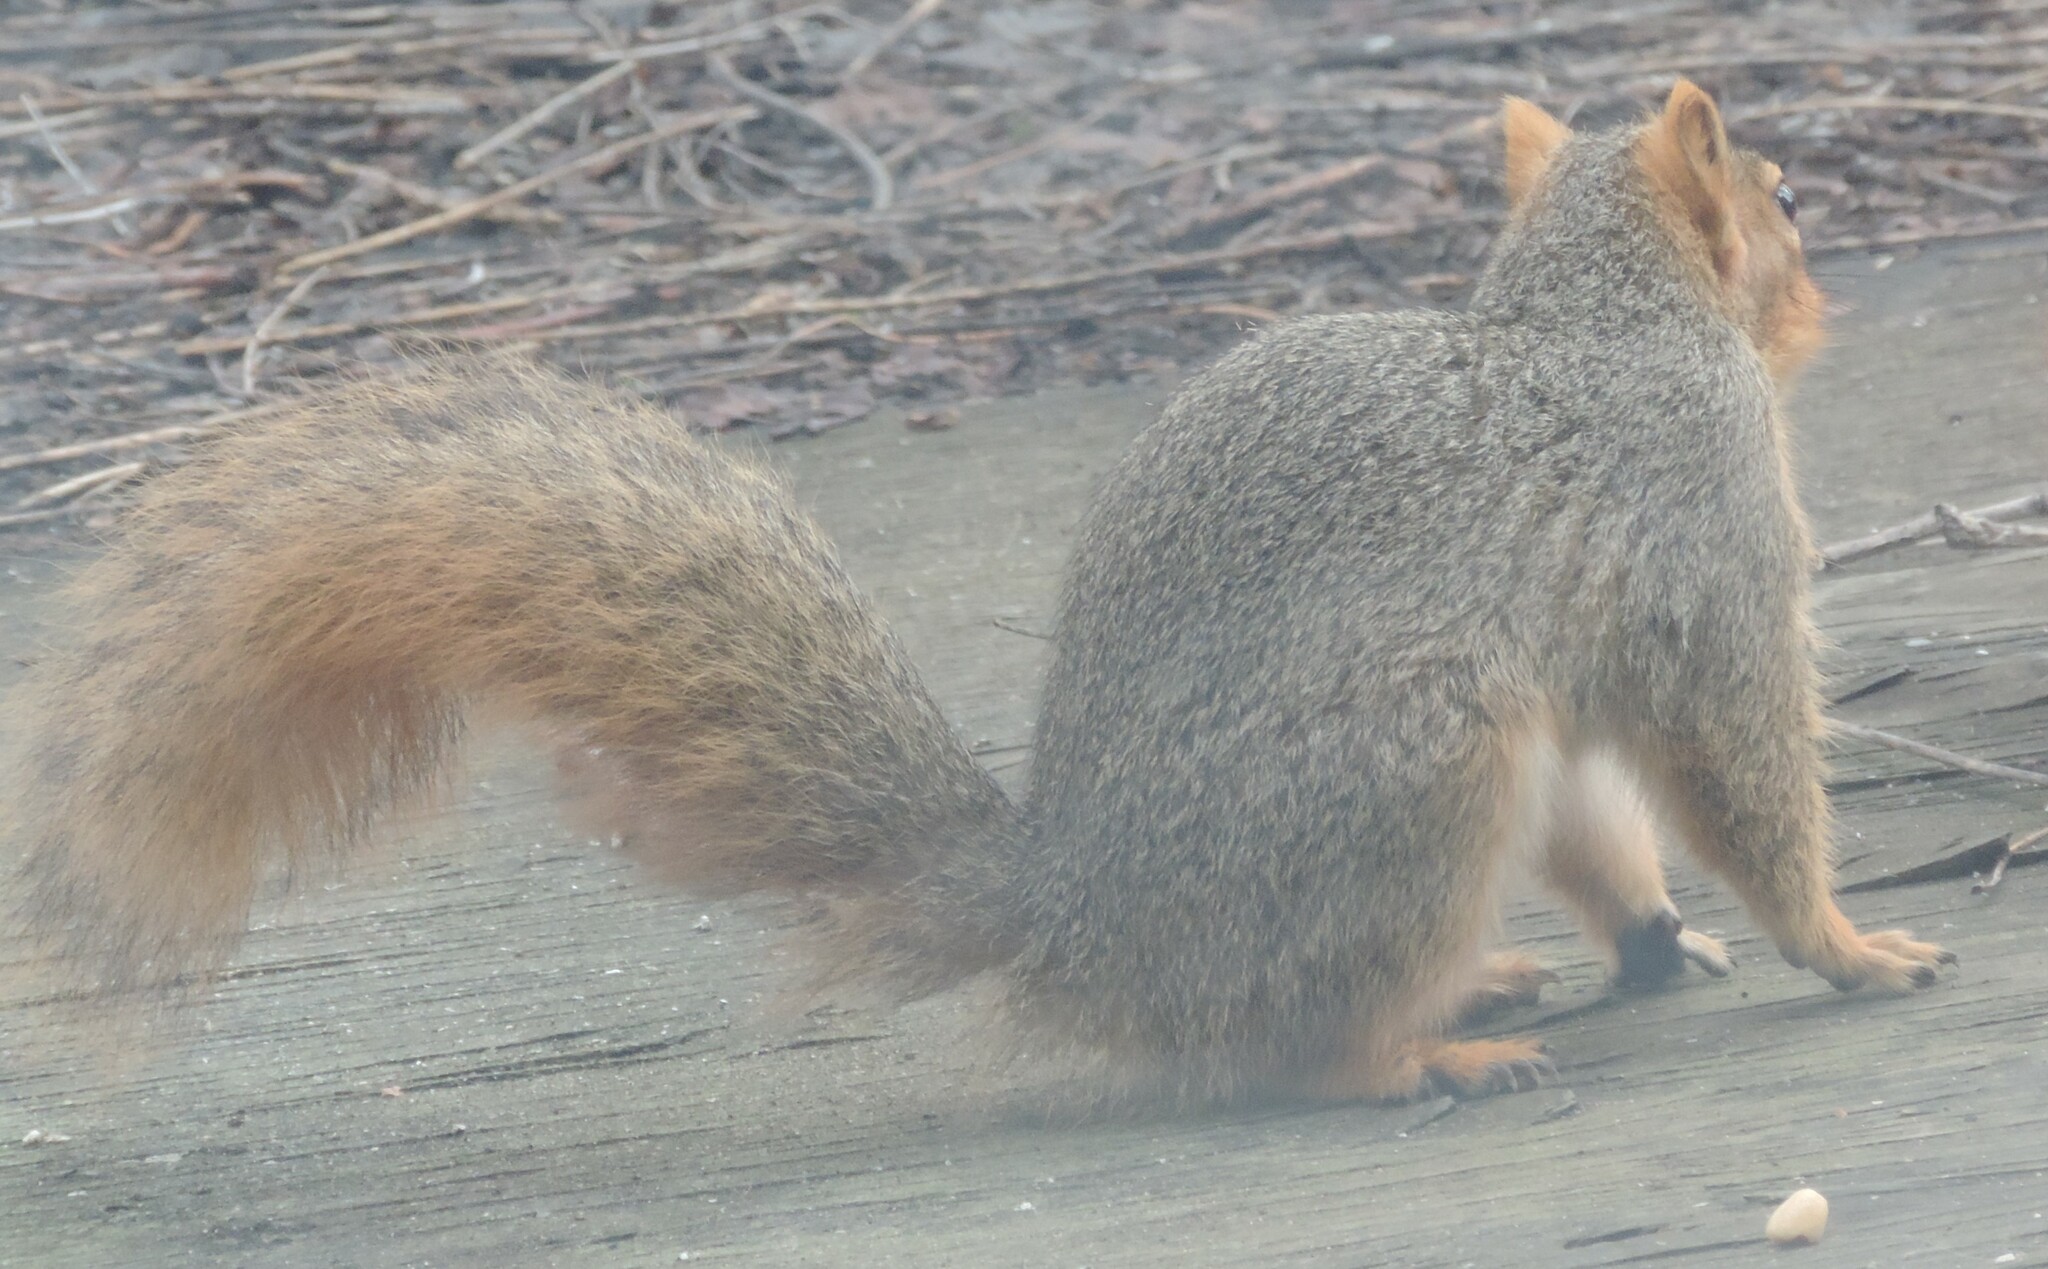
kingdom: Animalia
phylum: Chordata
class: Mammalia
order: Rodentia
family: Sciuridae
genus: Sciurus
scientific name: Sciurus niger
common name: Fox squirrel
